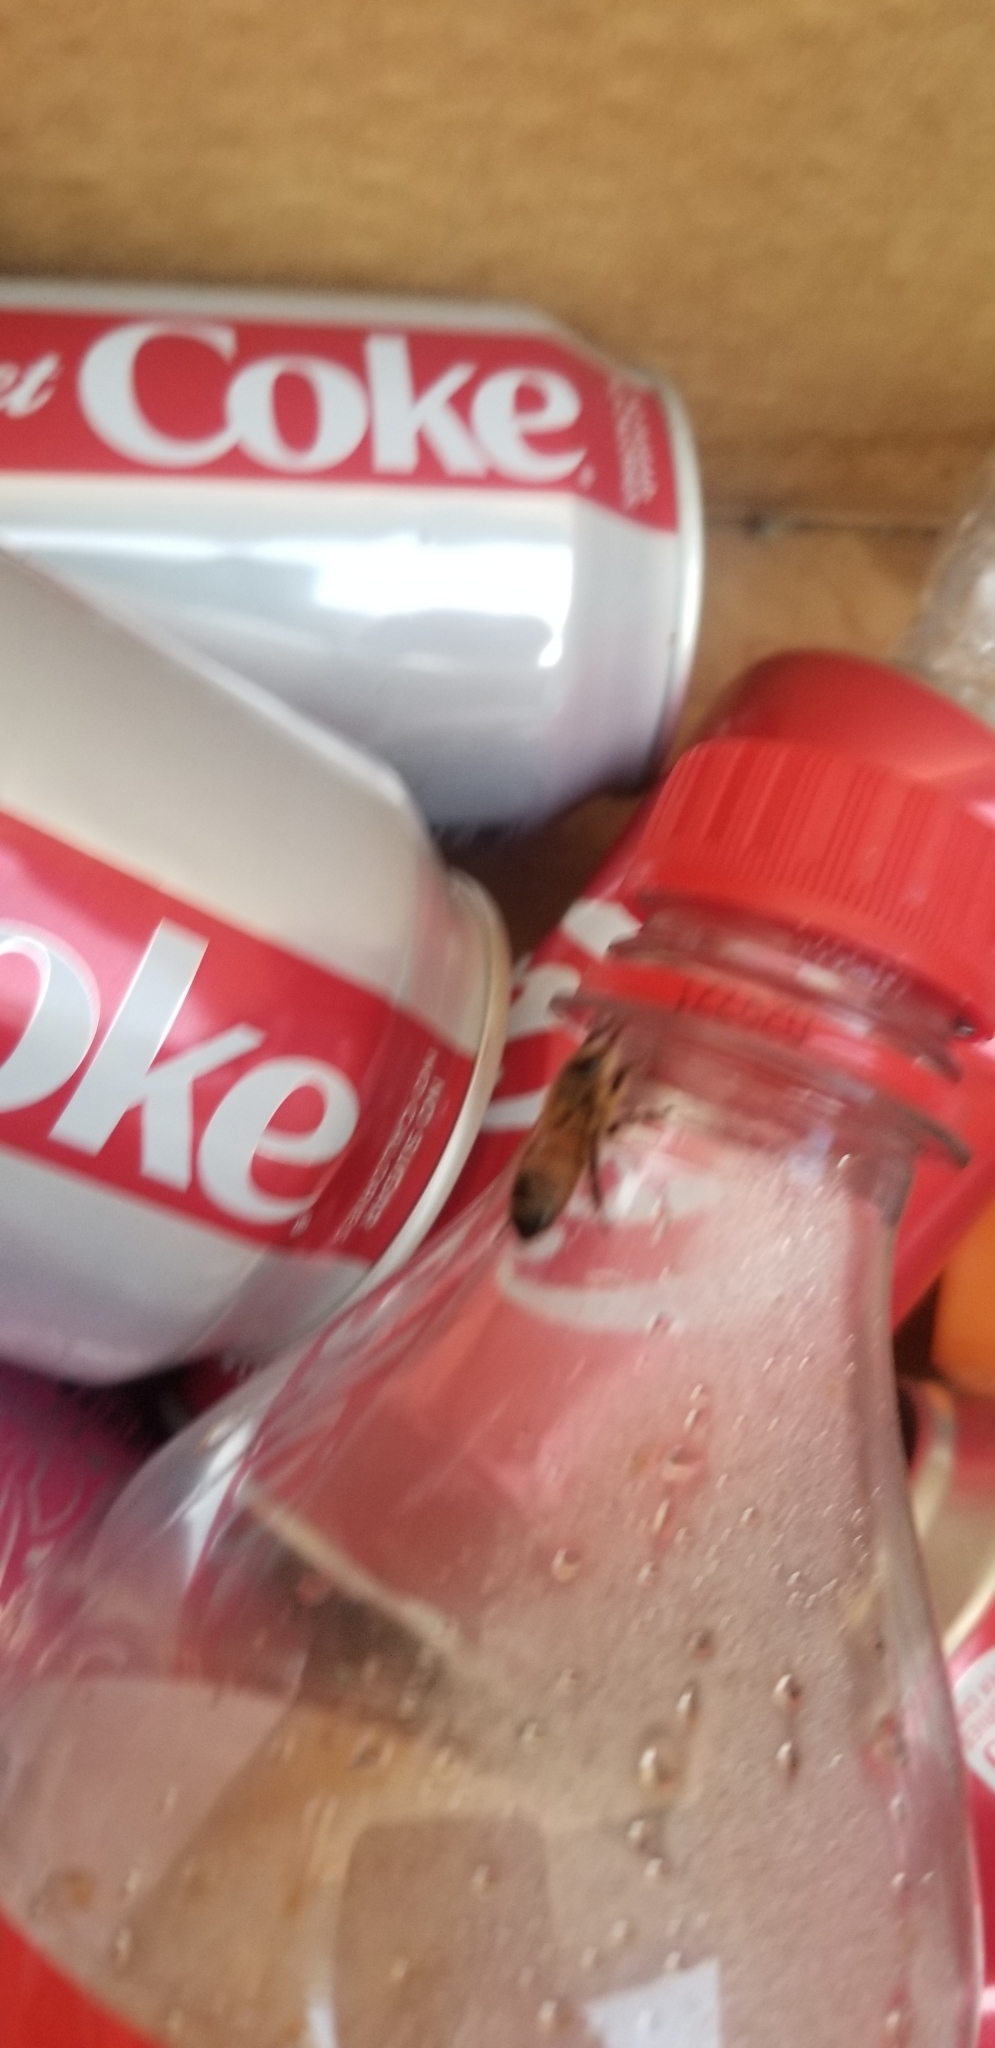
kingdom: Animalia
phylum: Arthropoda
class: Insecta
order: Hymenoptera
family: Apidae
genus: Apis
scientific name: Apis mellifera
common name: Honey bee
